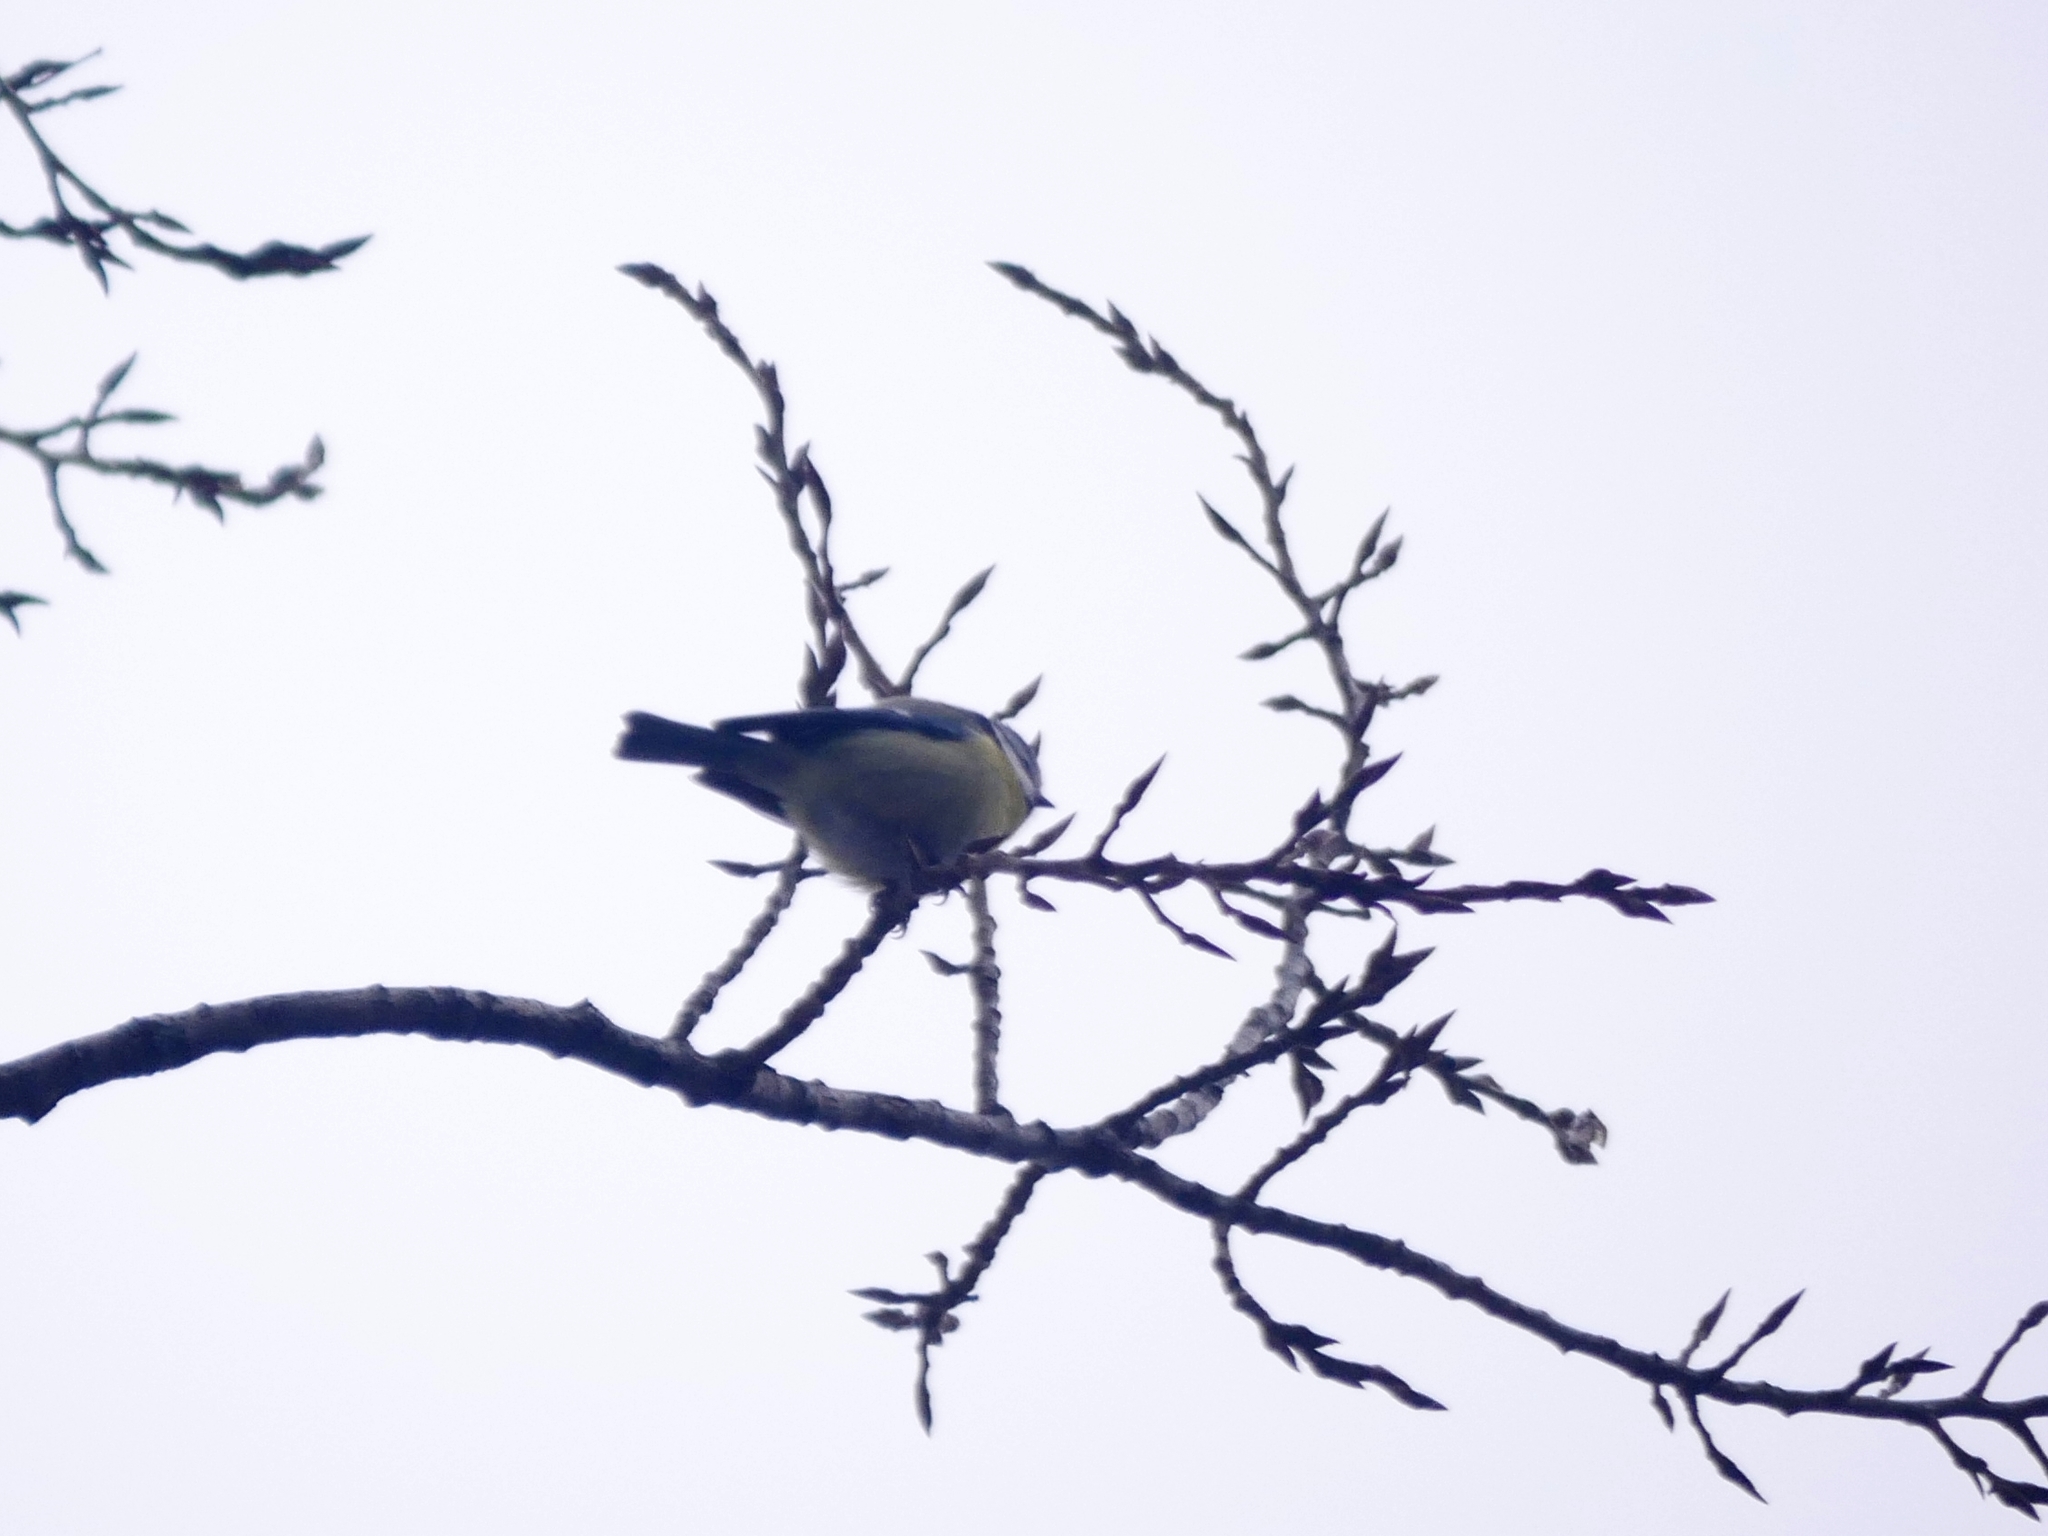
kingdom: Animalia
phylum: Chordata
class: Aves
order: Passeriformes
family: Paridae
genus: Cyanistes
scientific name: Cyanistes caeruleus
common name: Eurasian blue tit
